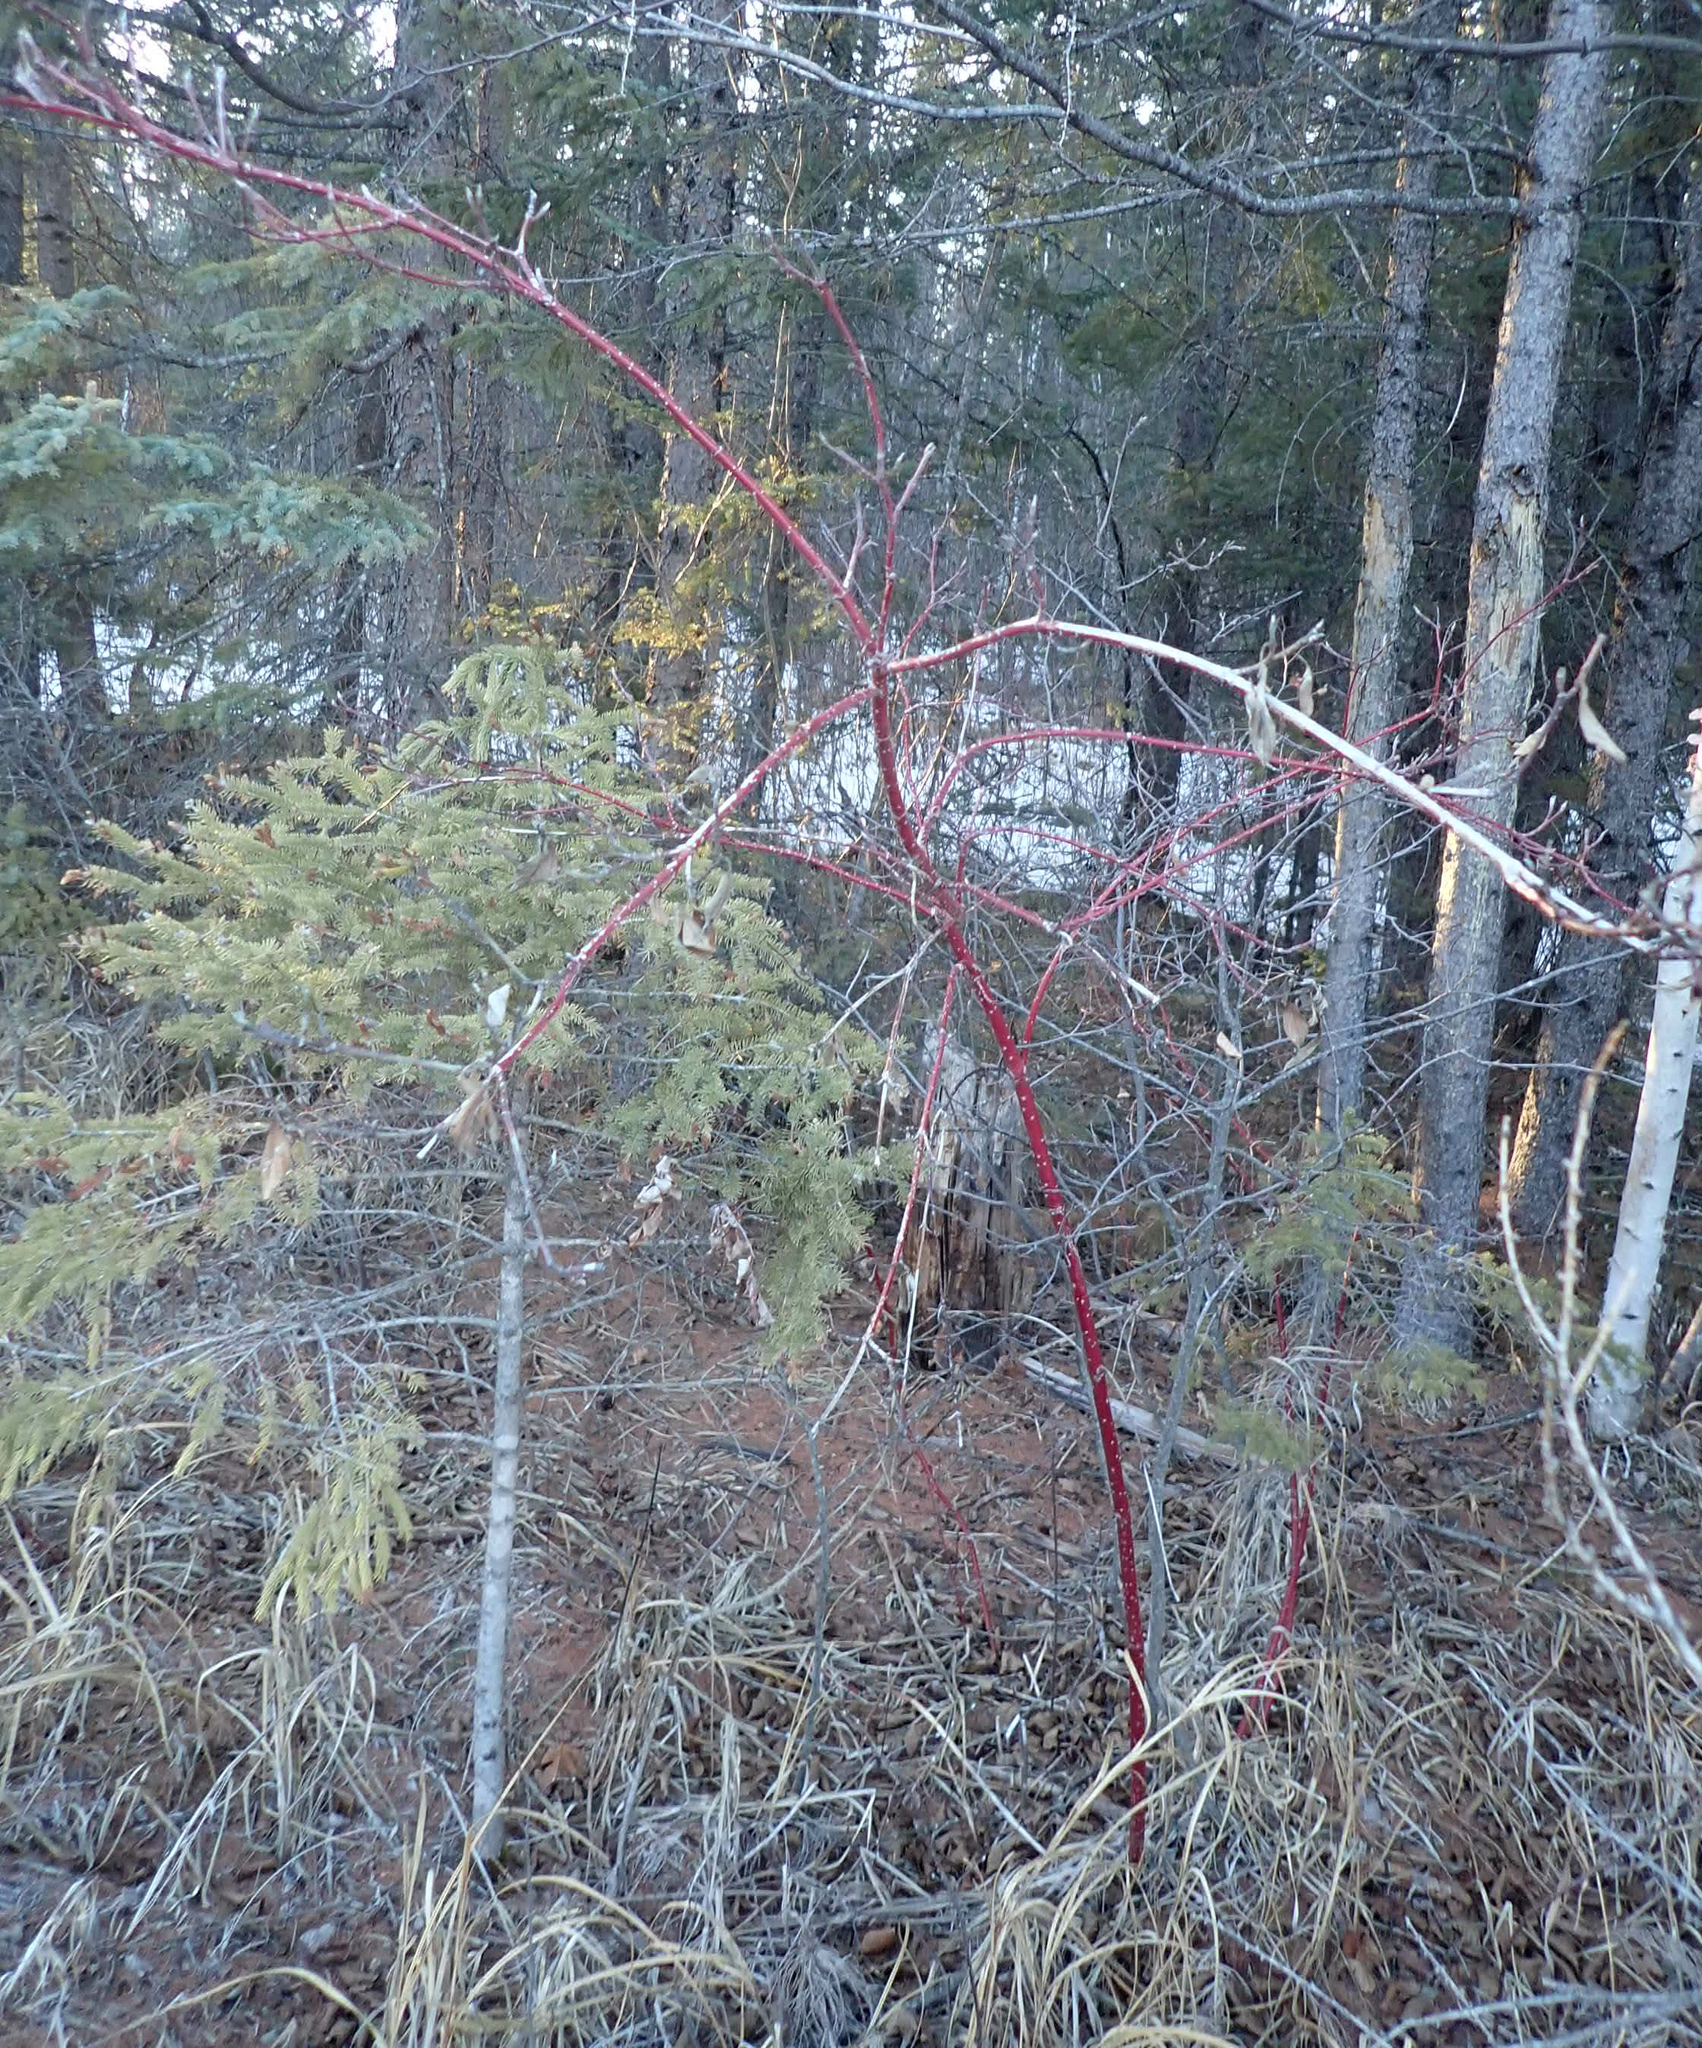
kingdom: Plantae
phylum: Tracheophyta
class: Magnoliopsida
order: Cornales
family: Cornaceae
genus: Cornus
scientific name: Cornus sericea
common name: Red-osier dogwood
